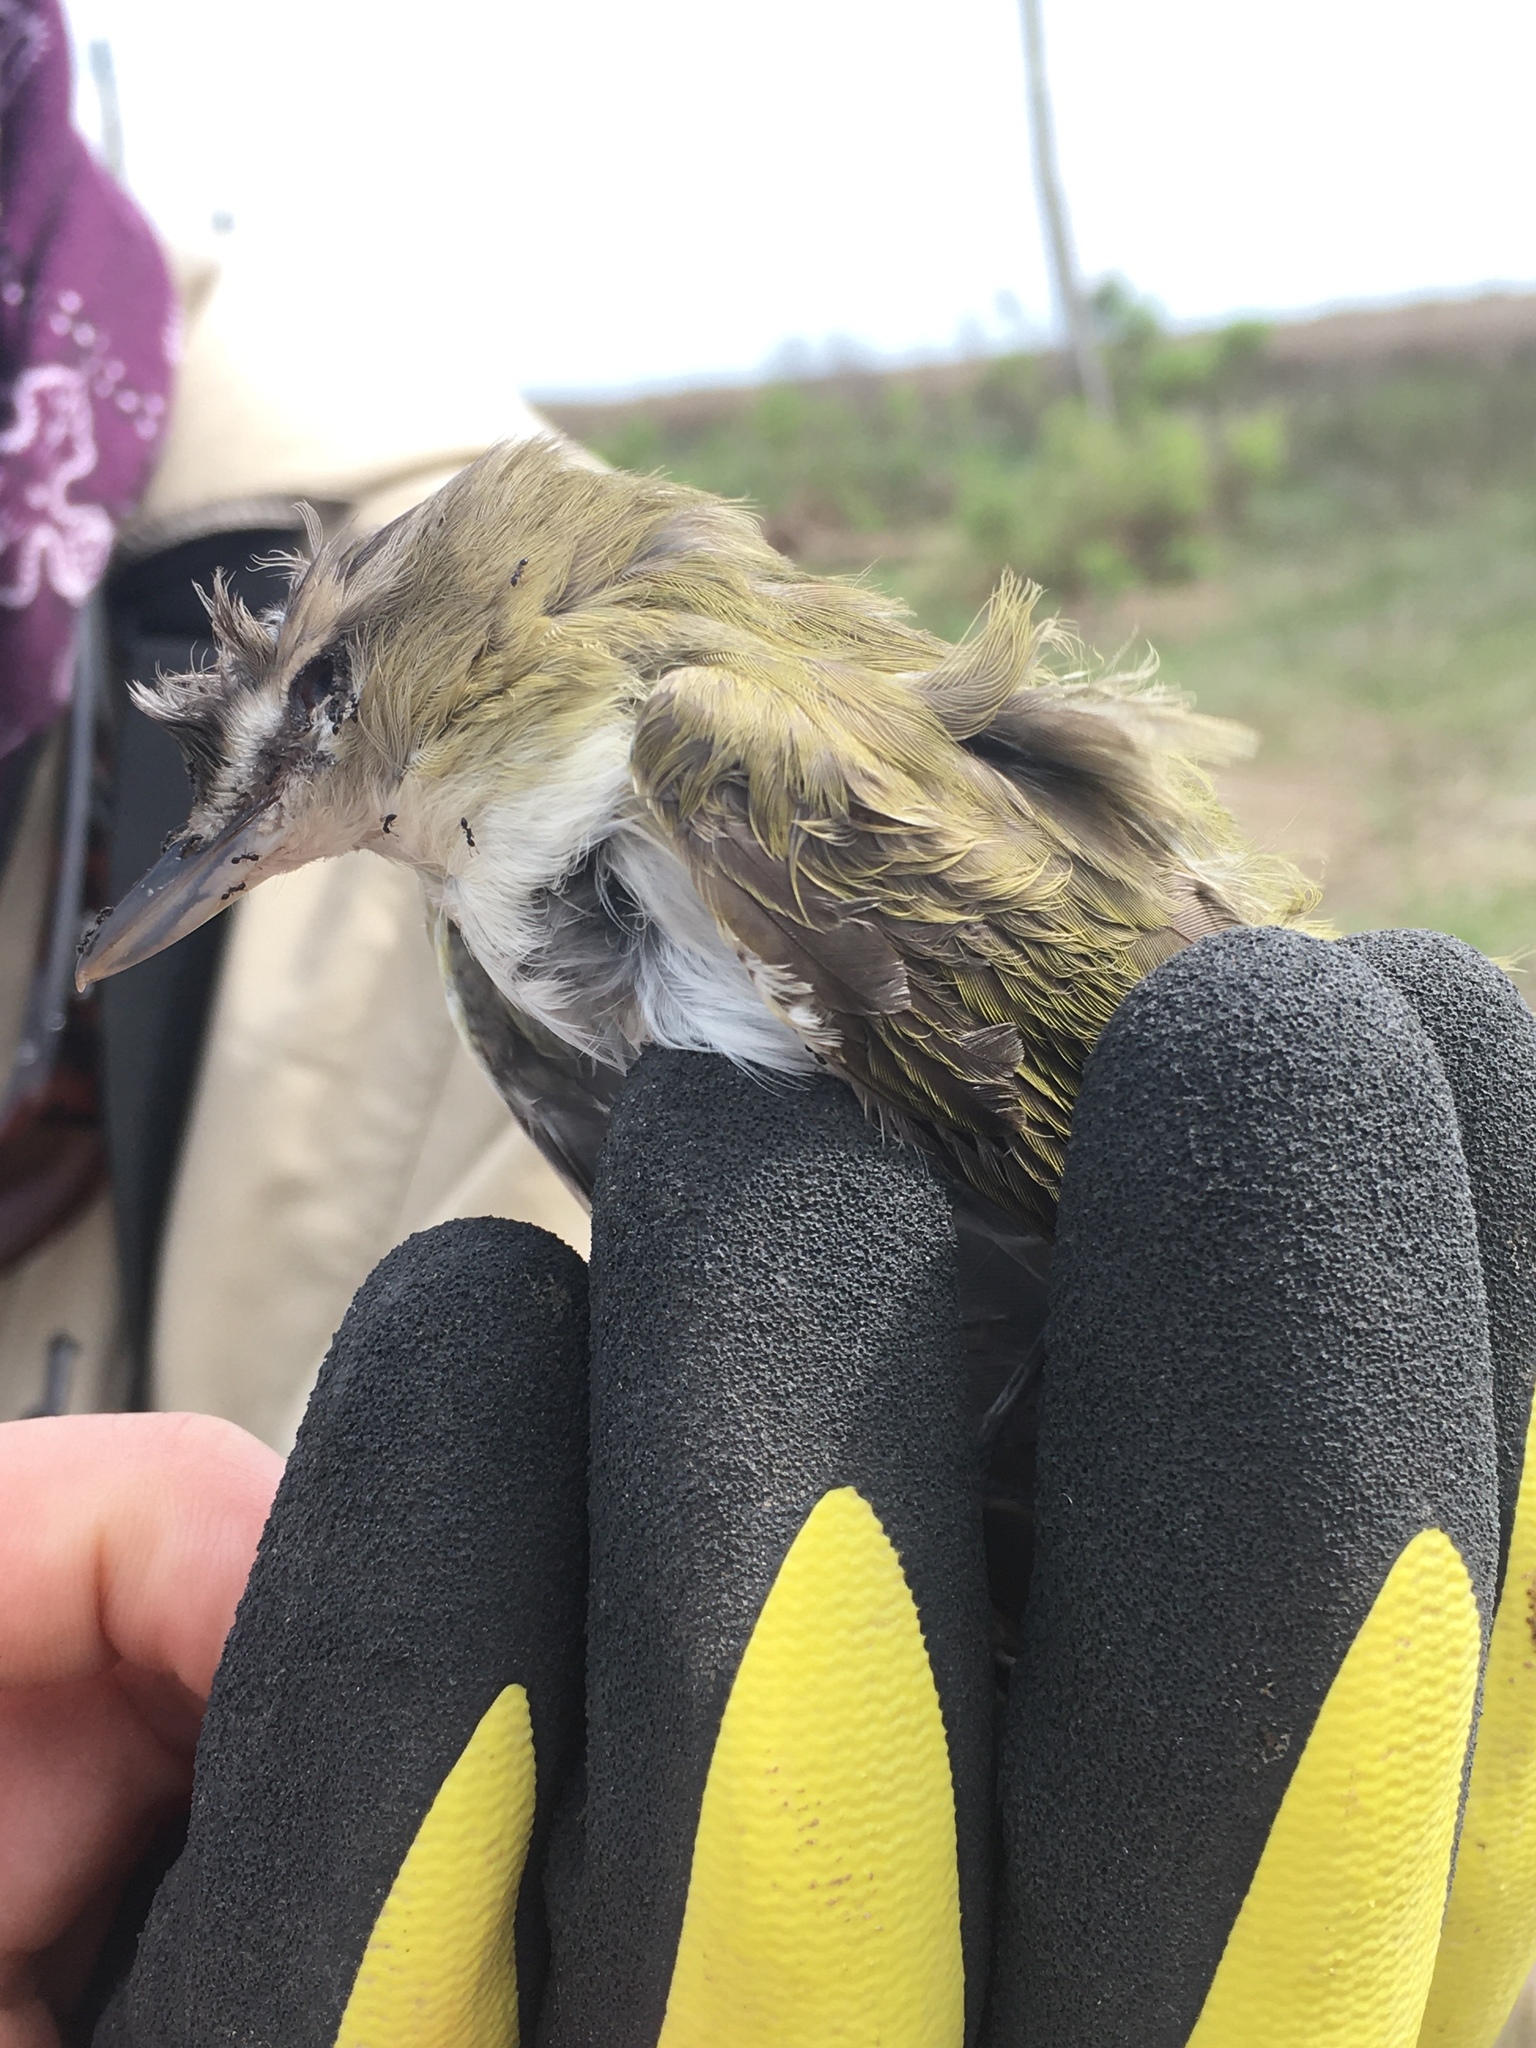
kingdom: Animalia
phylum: Chordata
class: Aves
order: Passeriformes
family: Vireonidae
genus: Vireo
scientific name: Vireo olivaceus
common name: Red-eyed vireo
